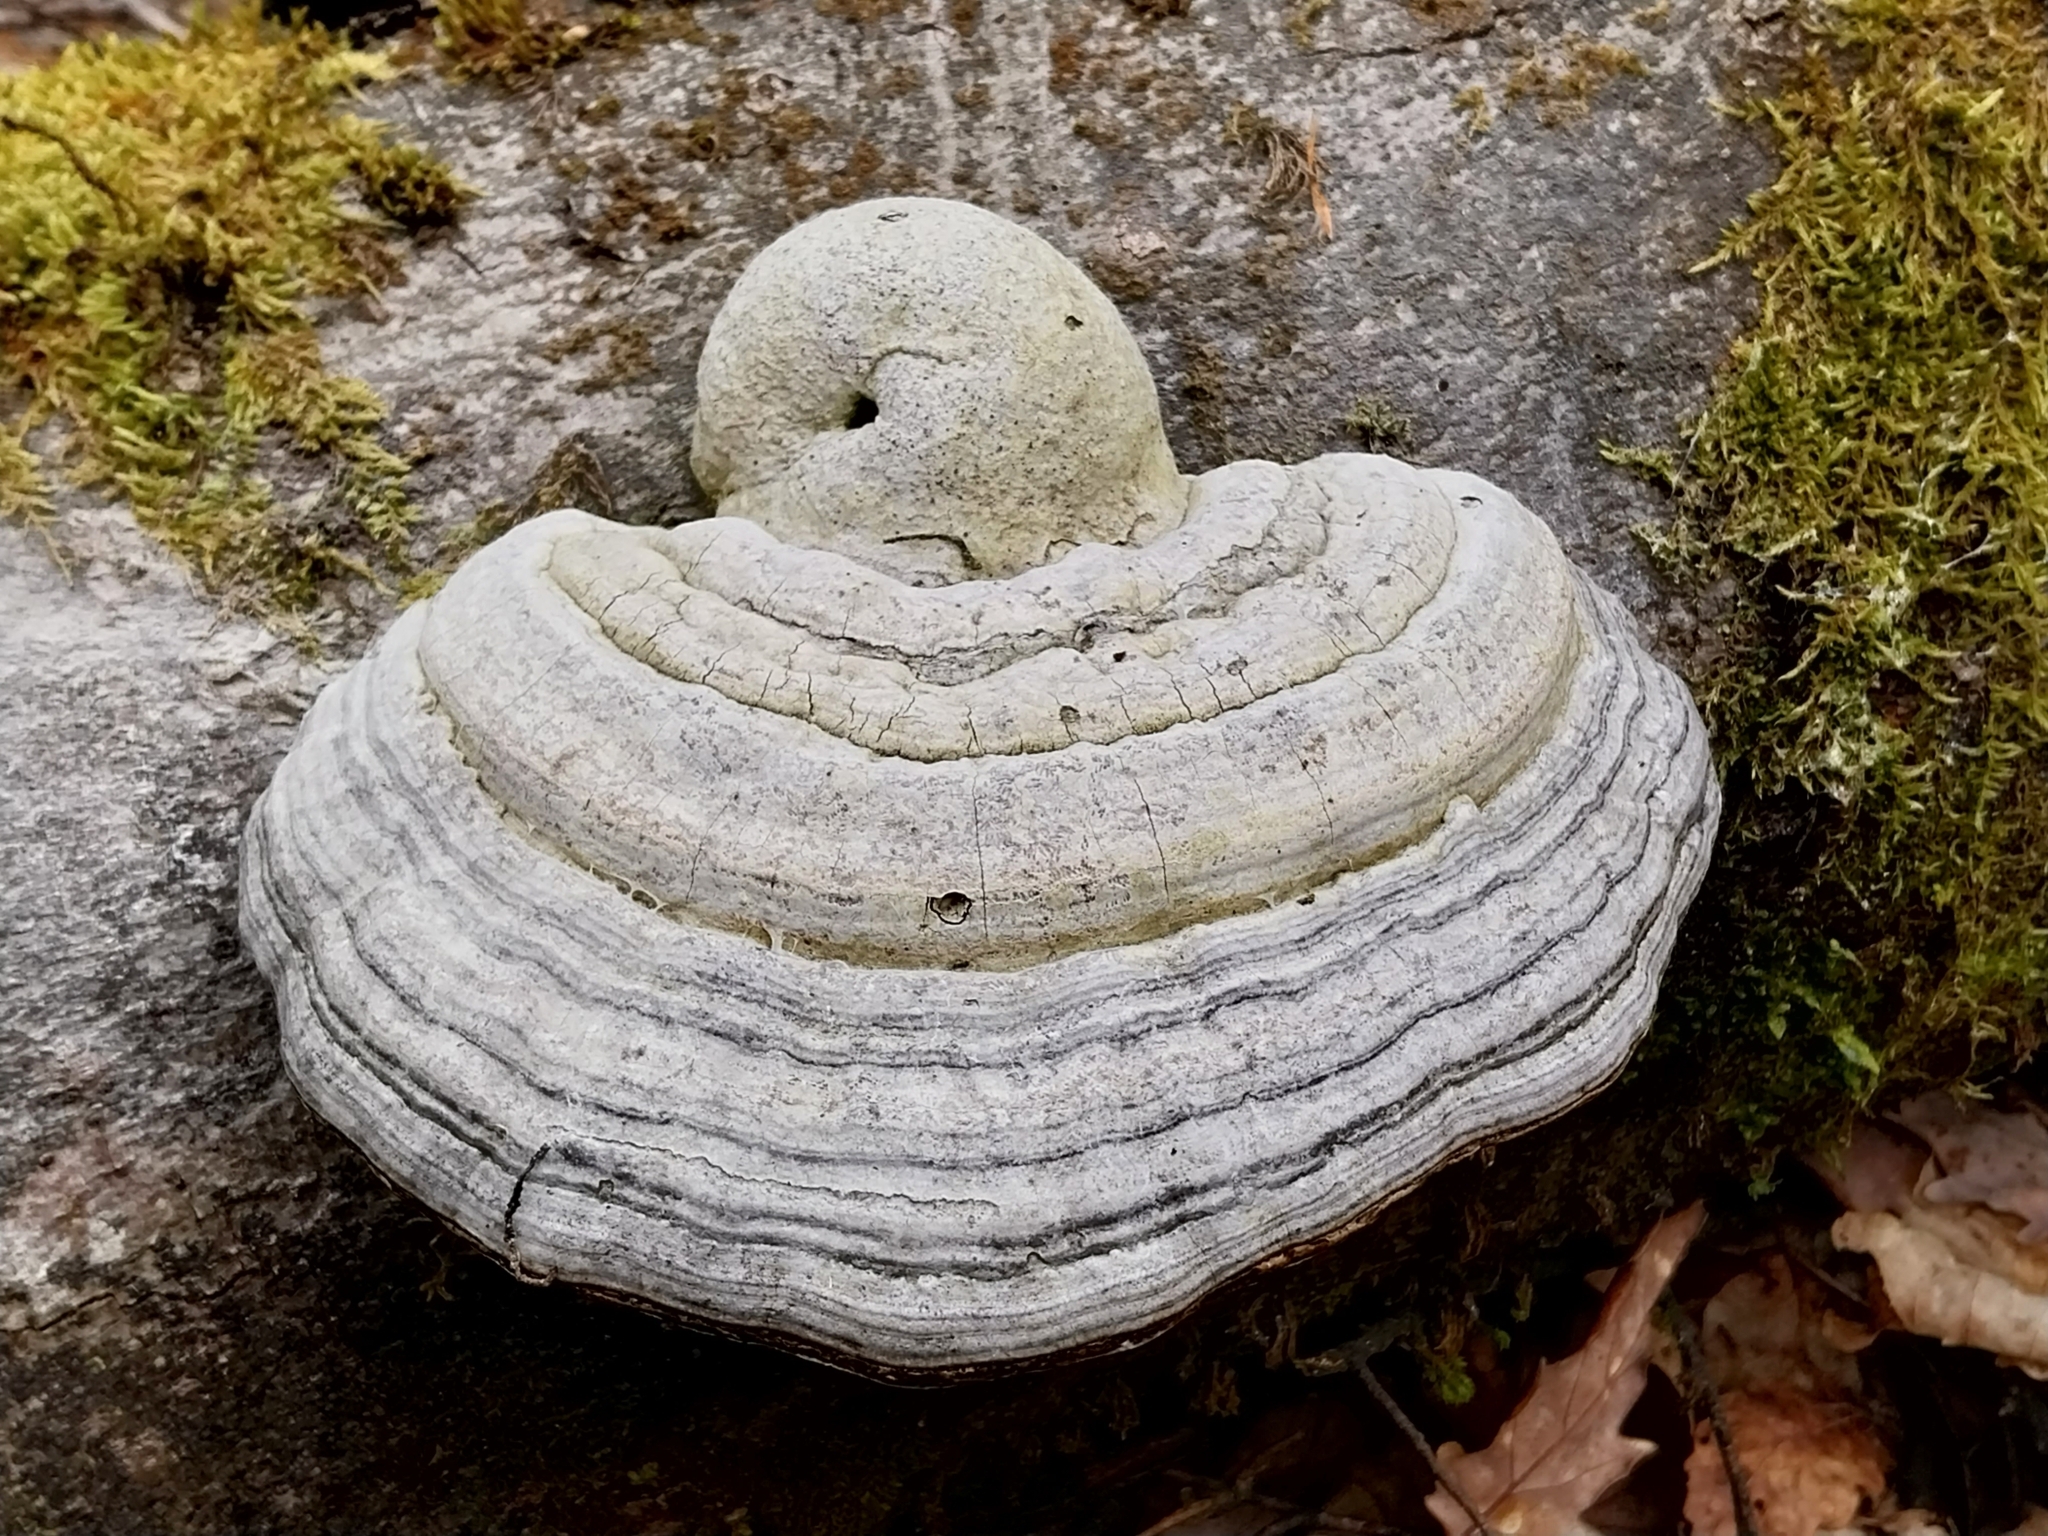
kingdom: Fungi
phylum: Basidiomycota
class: Agaricomycetes
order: Polyporales
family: Polyporaceae
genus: Fomes
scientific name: Fomes fomentarius
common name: Hoof fungus
